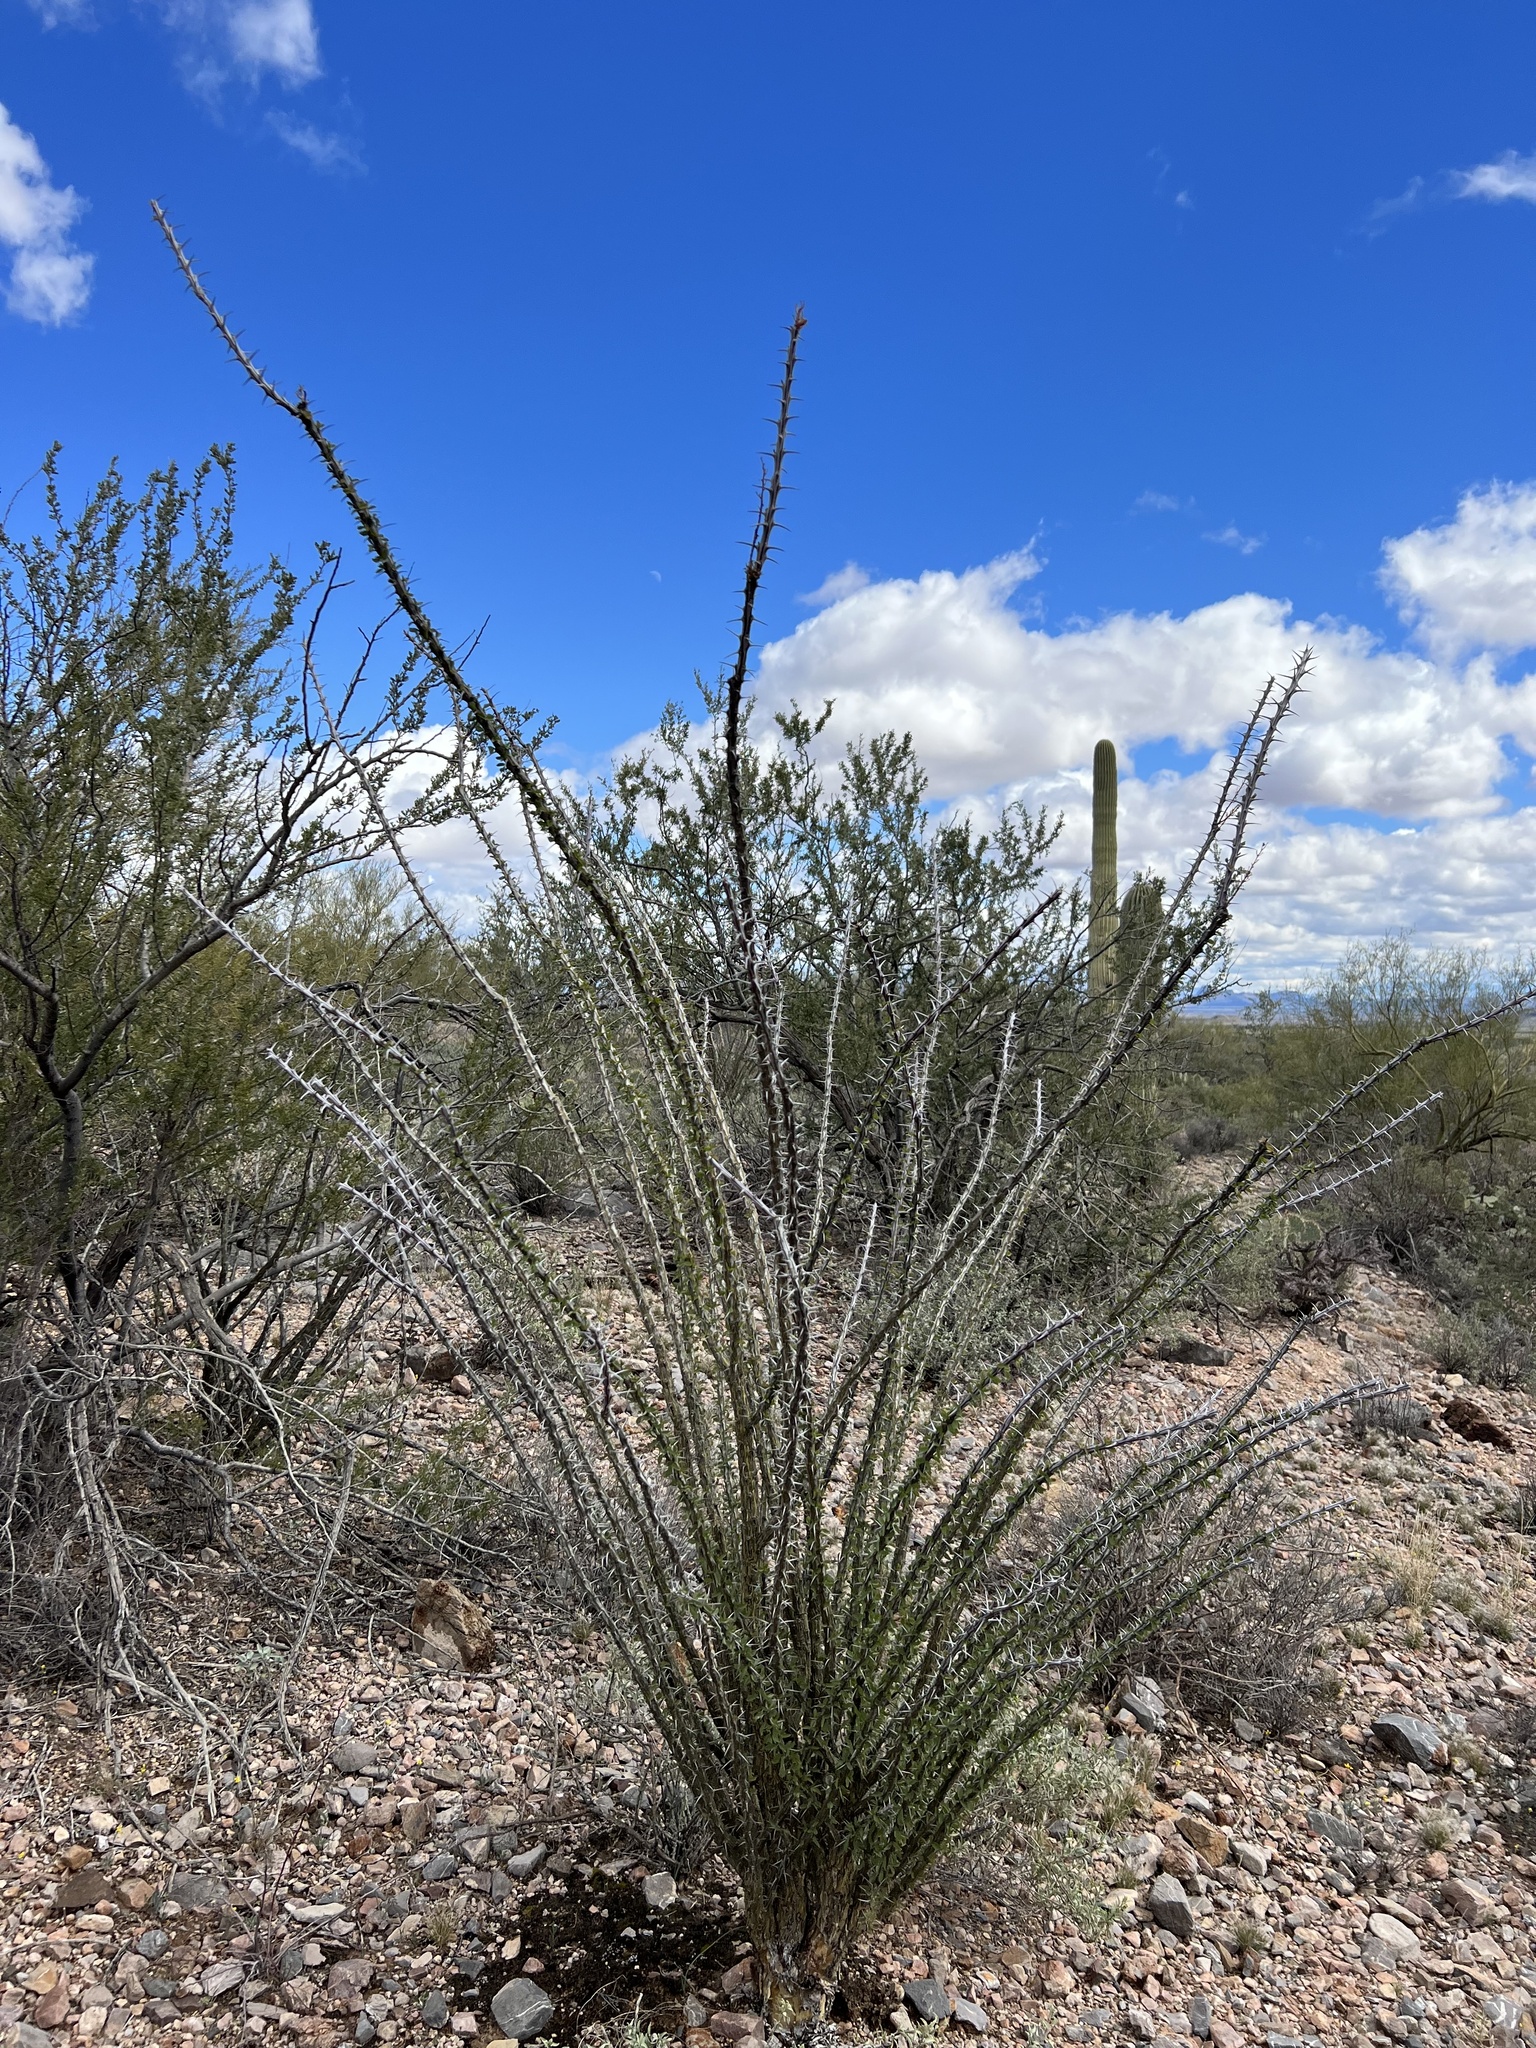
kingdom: Plantae
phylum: Tracheophyta
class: Magnoliopsida
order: Ericales
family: Fouquieriaceae
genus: Fouquieria
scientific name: Fouquieria splendens
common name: Vine-cactus
